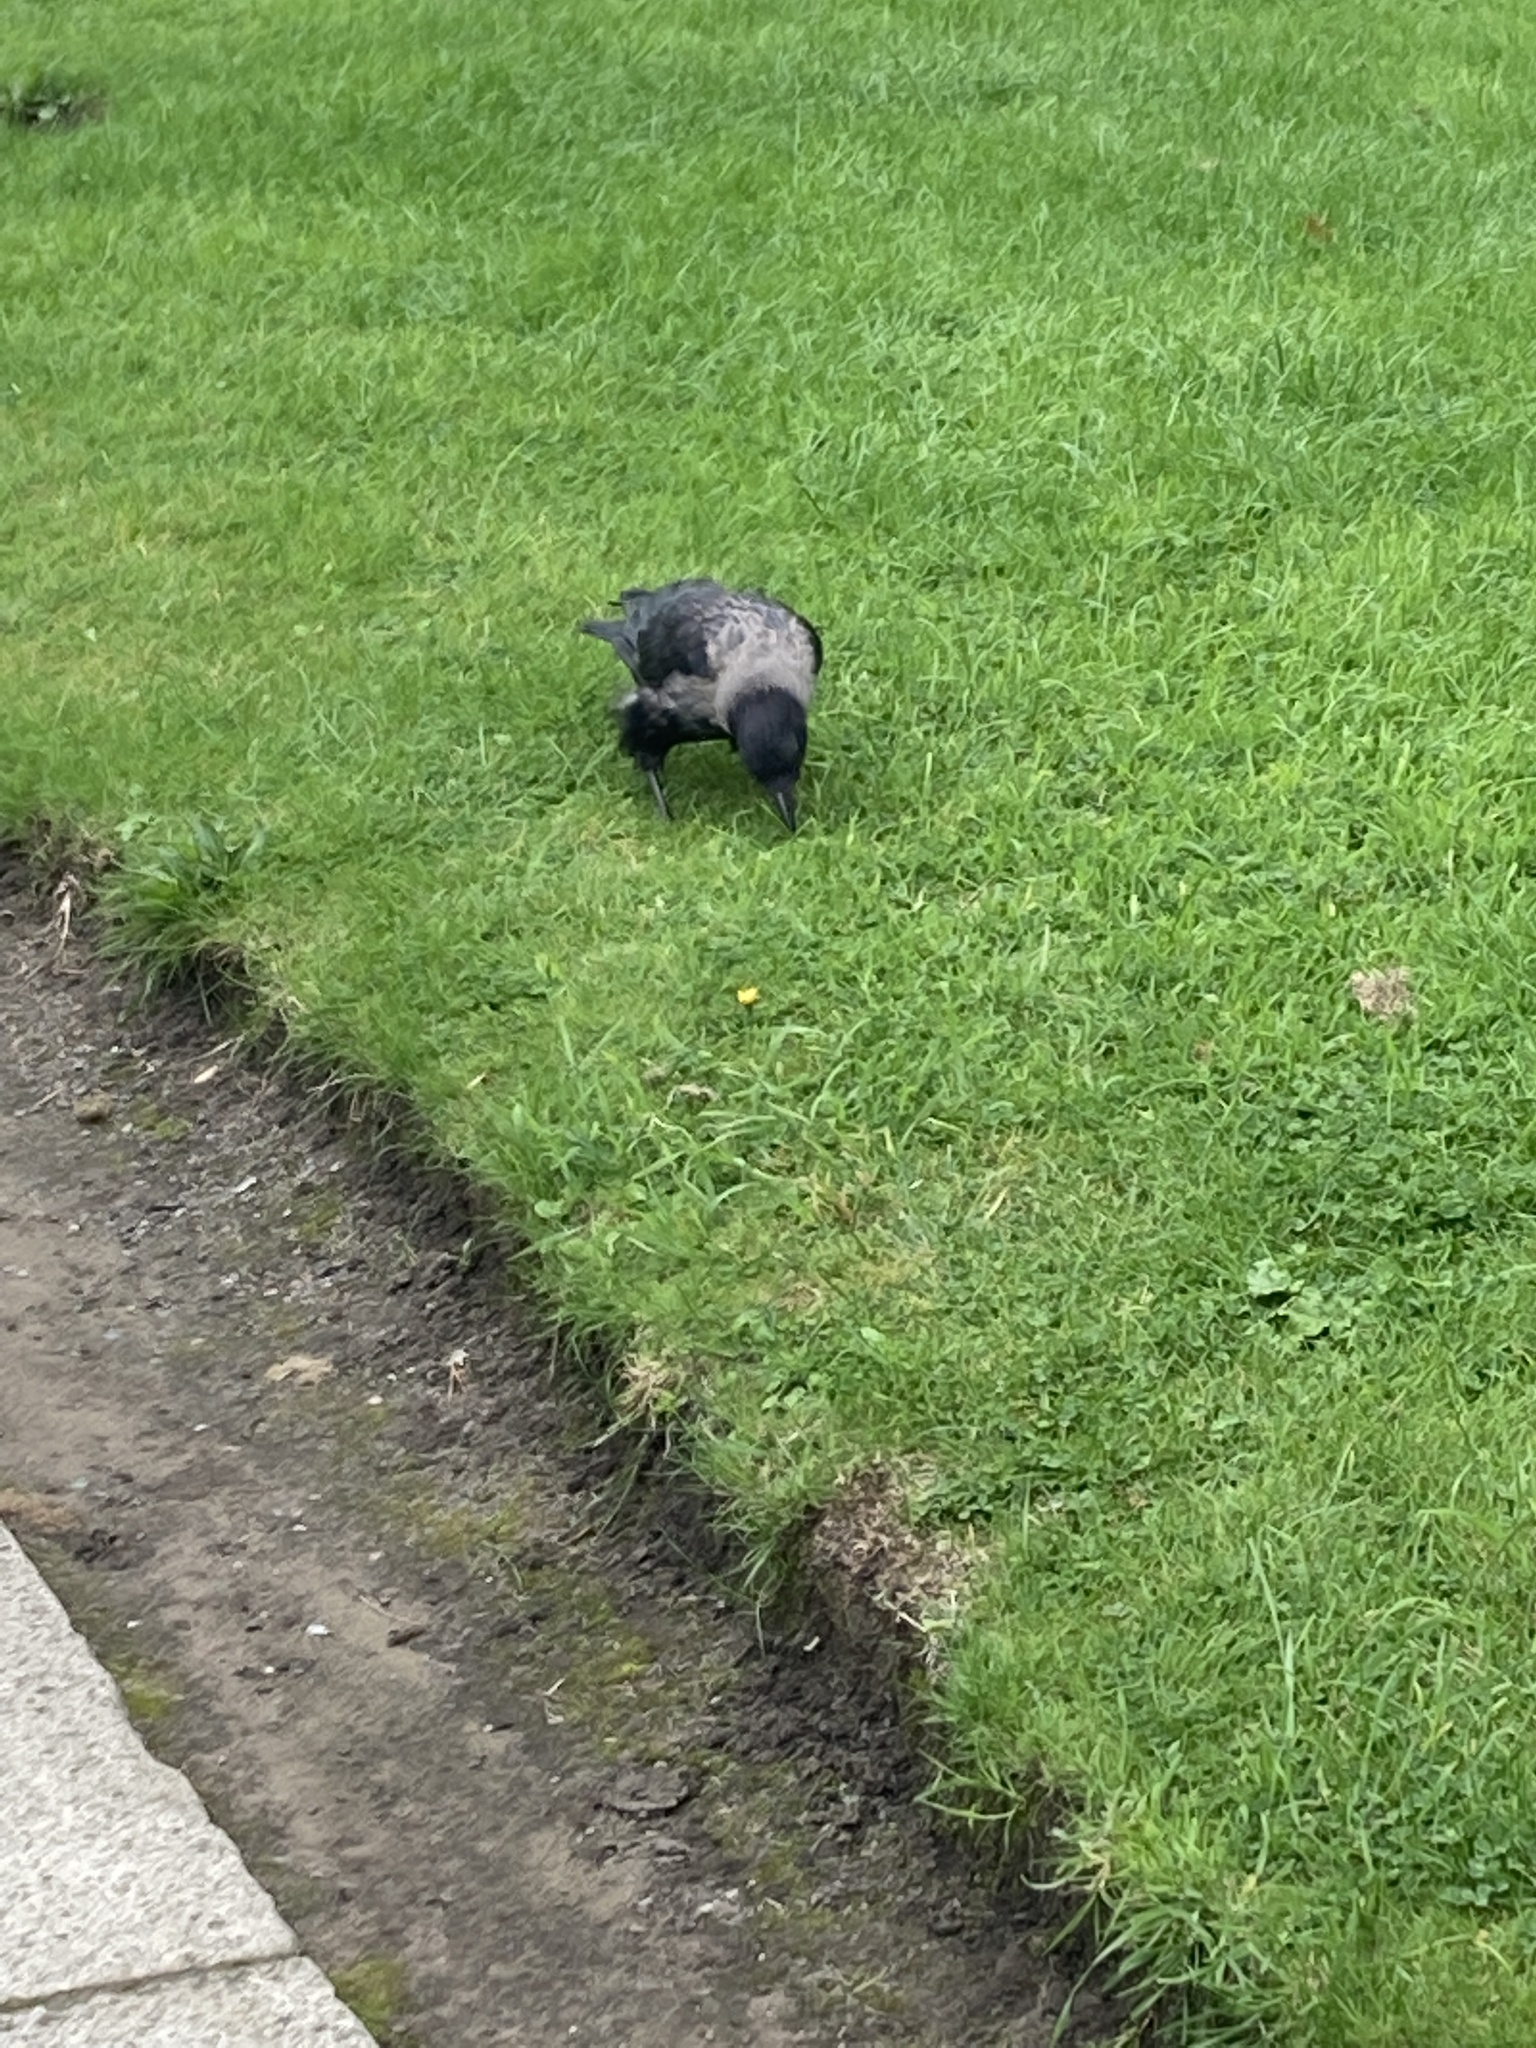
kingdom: Animalia
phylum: Chordata
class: Aves
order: Passeriformes
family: Corvidae
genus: Corvus
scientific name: Corvus
